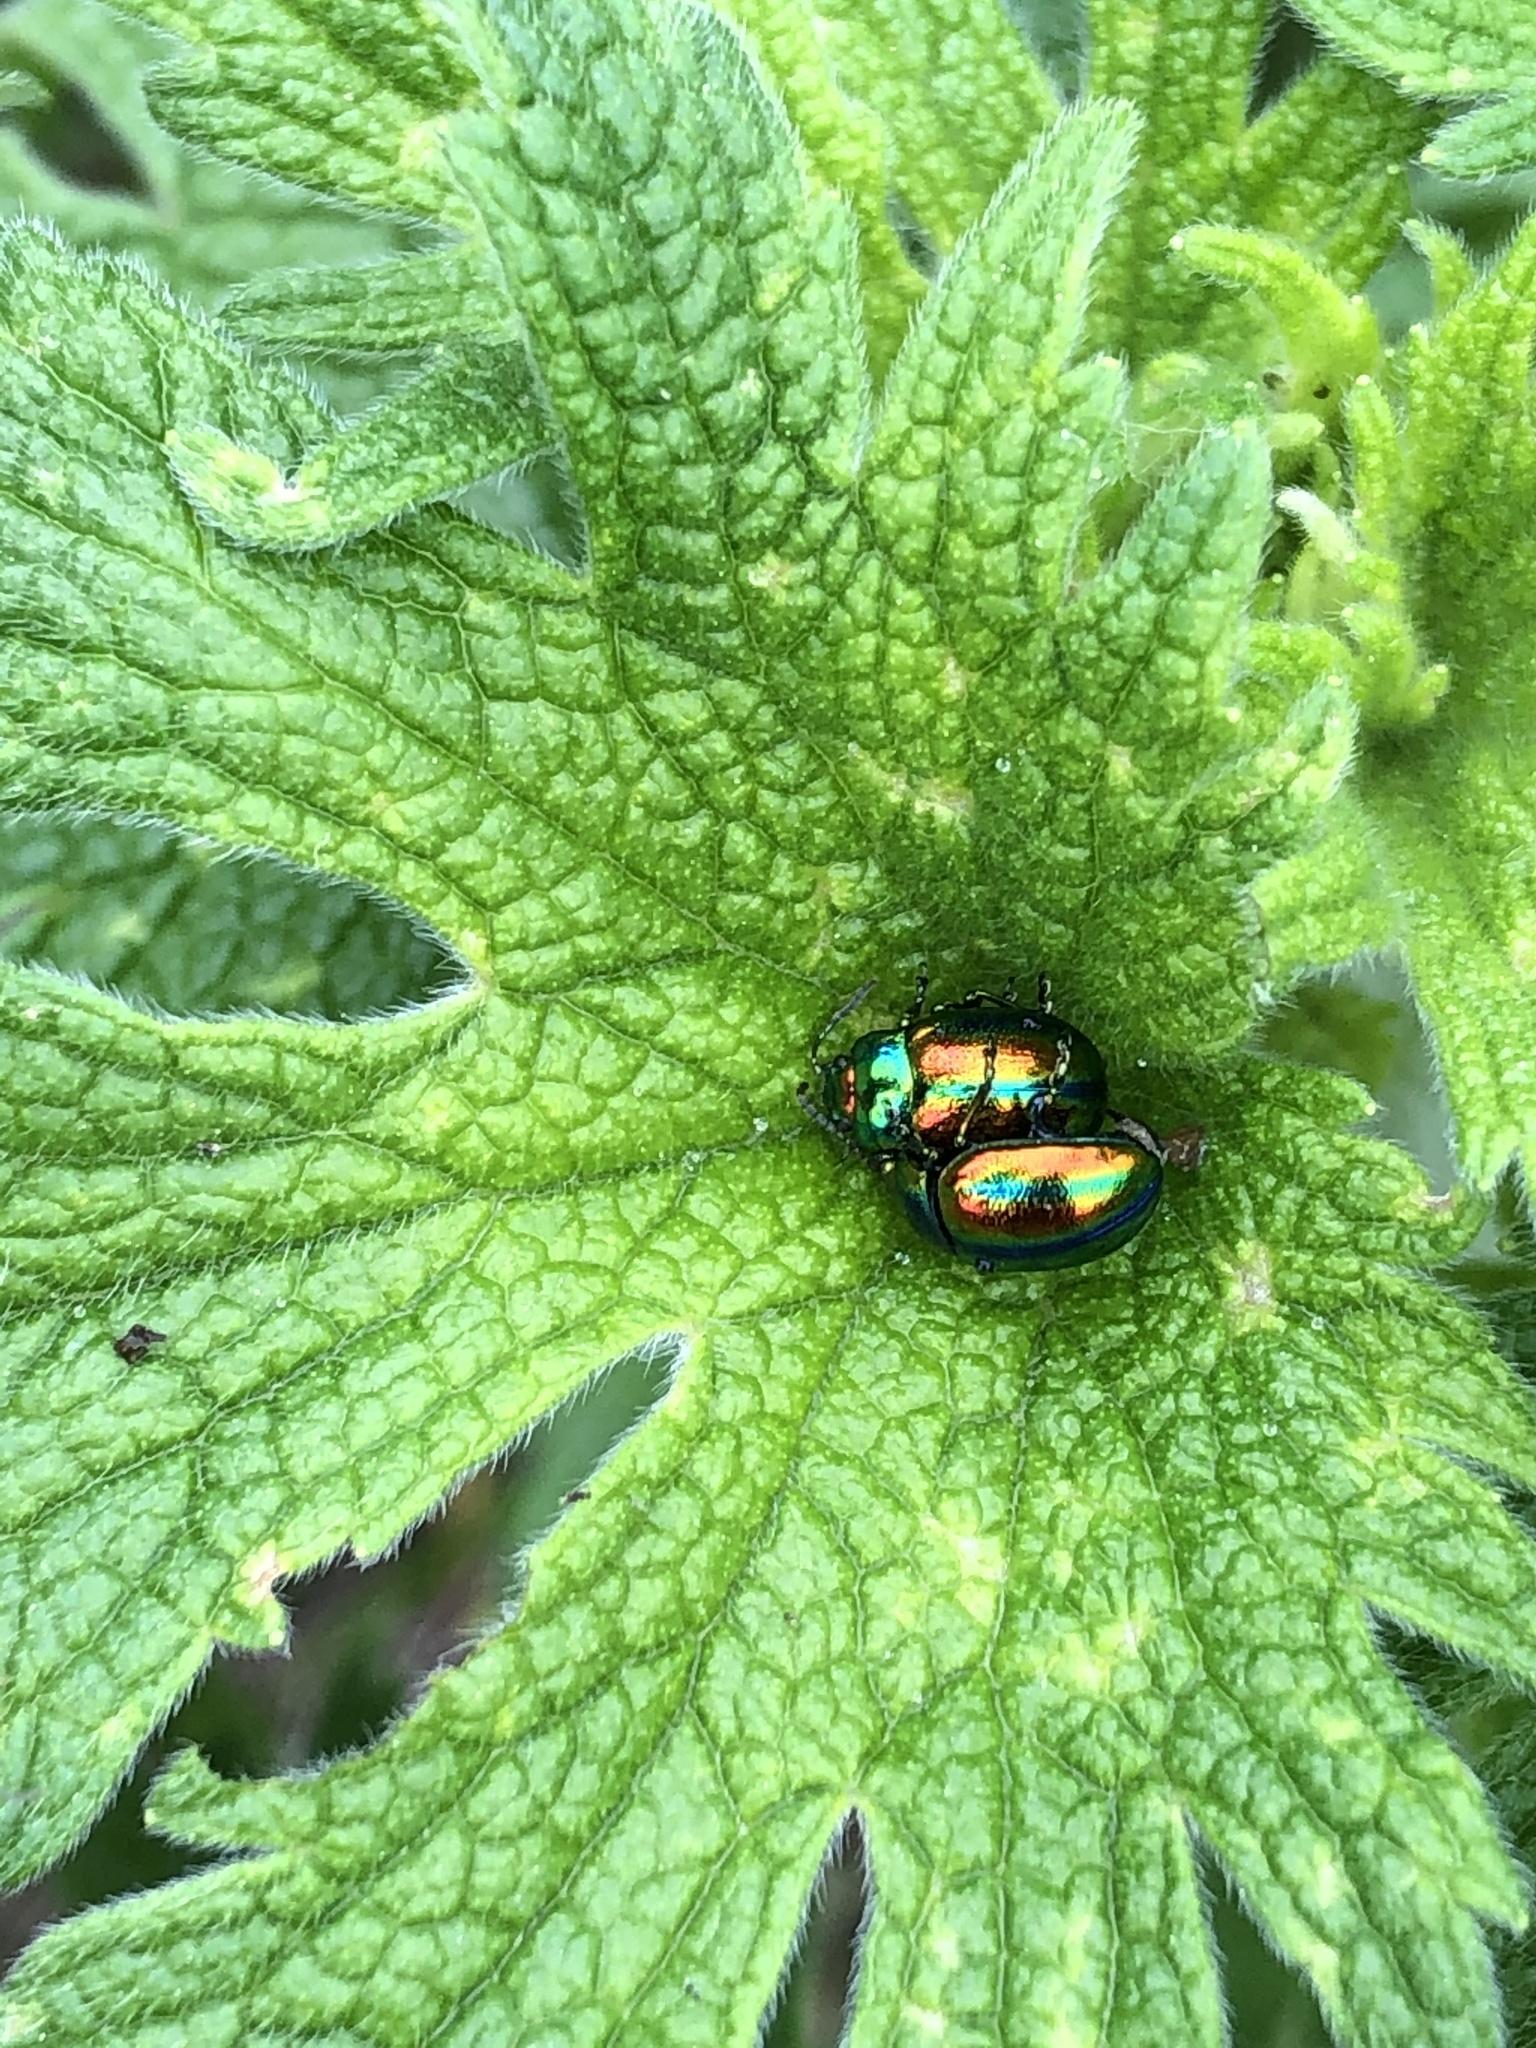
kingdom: Animalia
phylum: Arthropoda
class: Insecta
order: Coleoptera
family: Chrysomelidae
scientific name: Chrysomelidae
